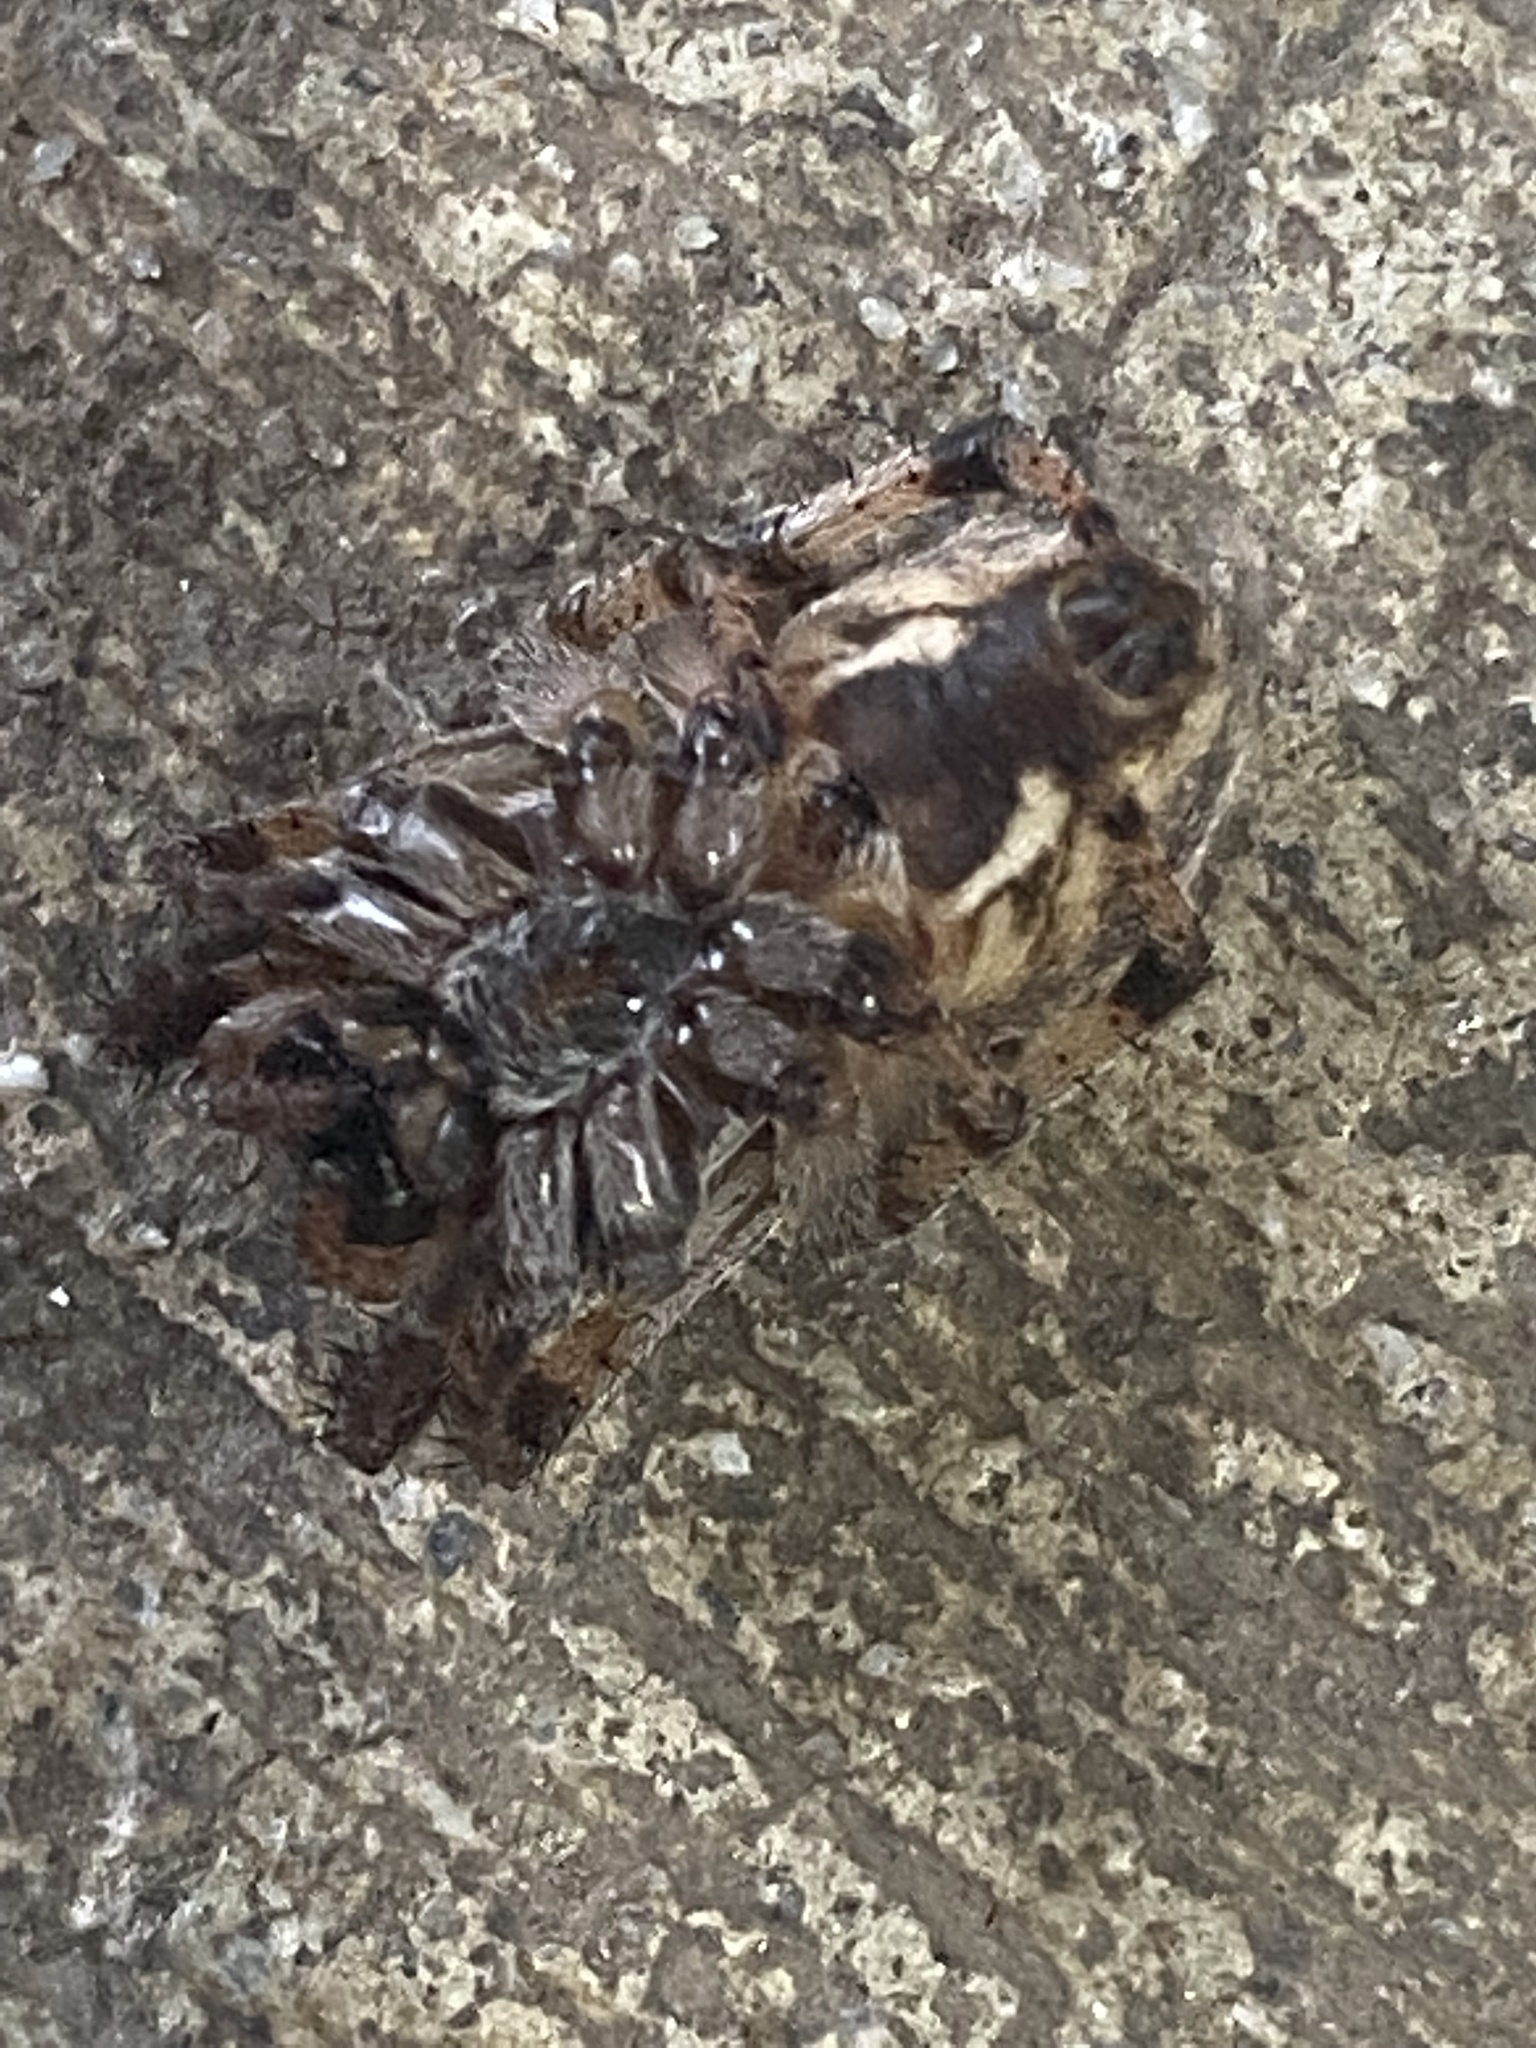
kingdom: Animalia
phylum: Arthropoda
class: Arachnida
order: Araneae
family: Araneidae
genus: Larinioides
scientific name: Larinioides cornutus
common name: Furrow orbweaver
